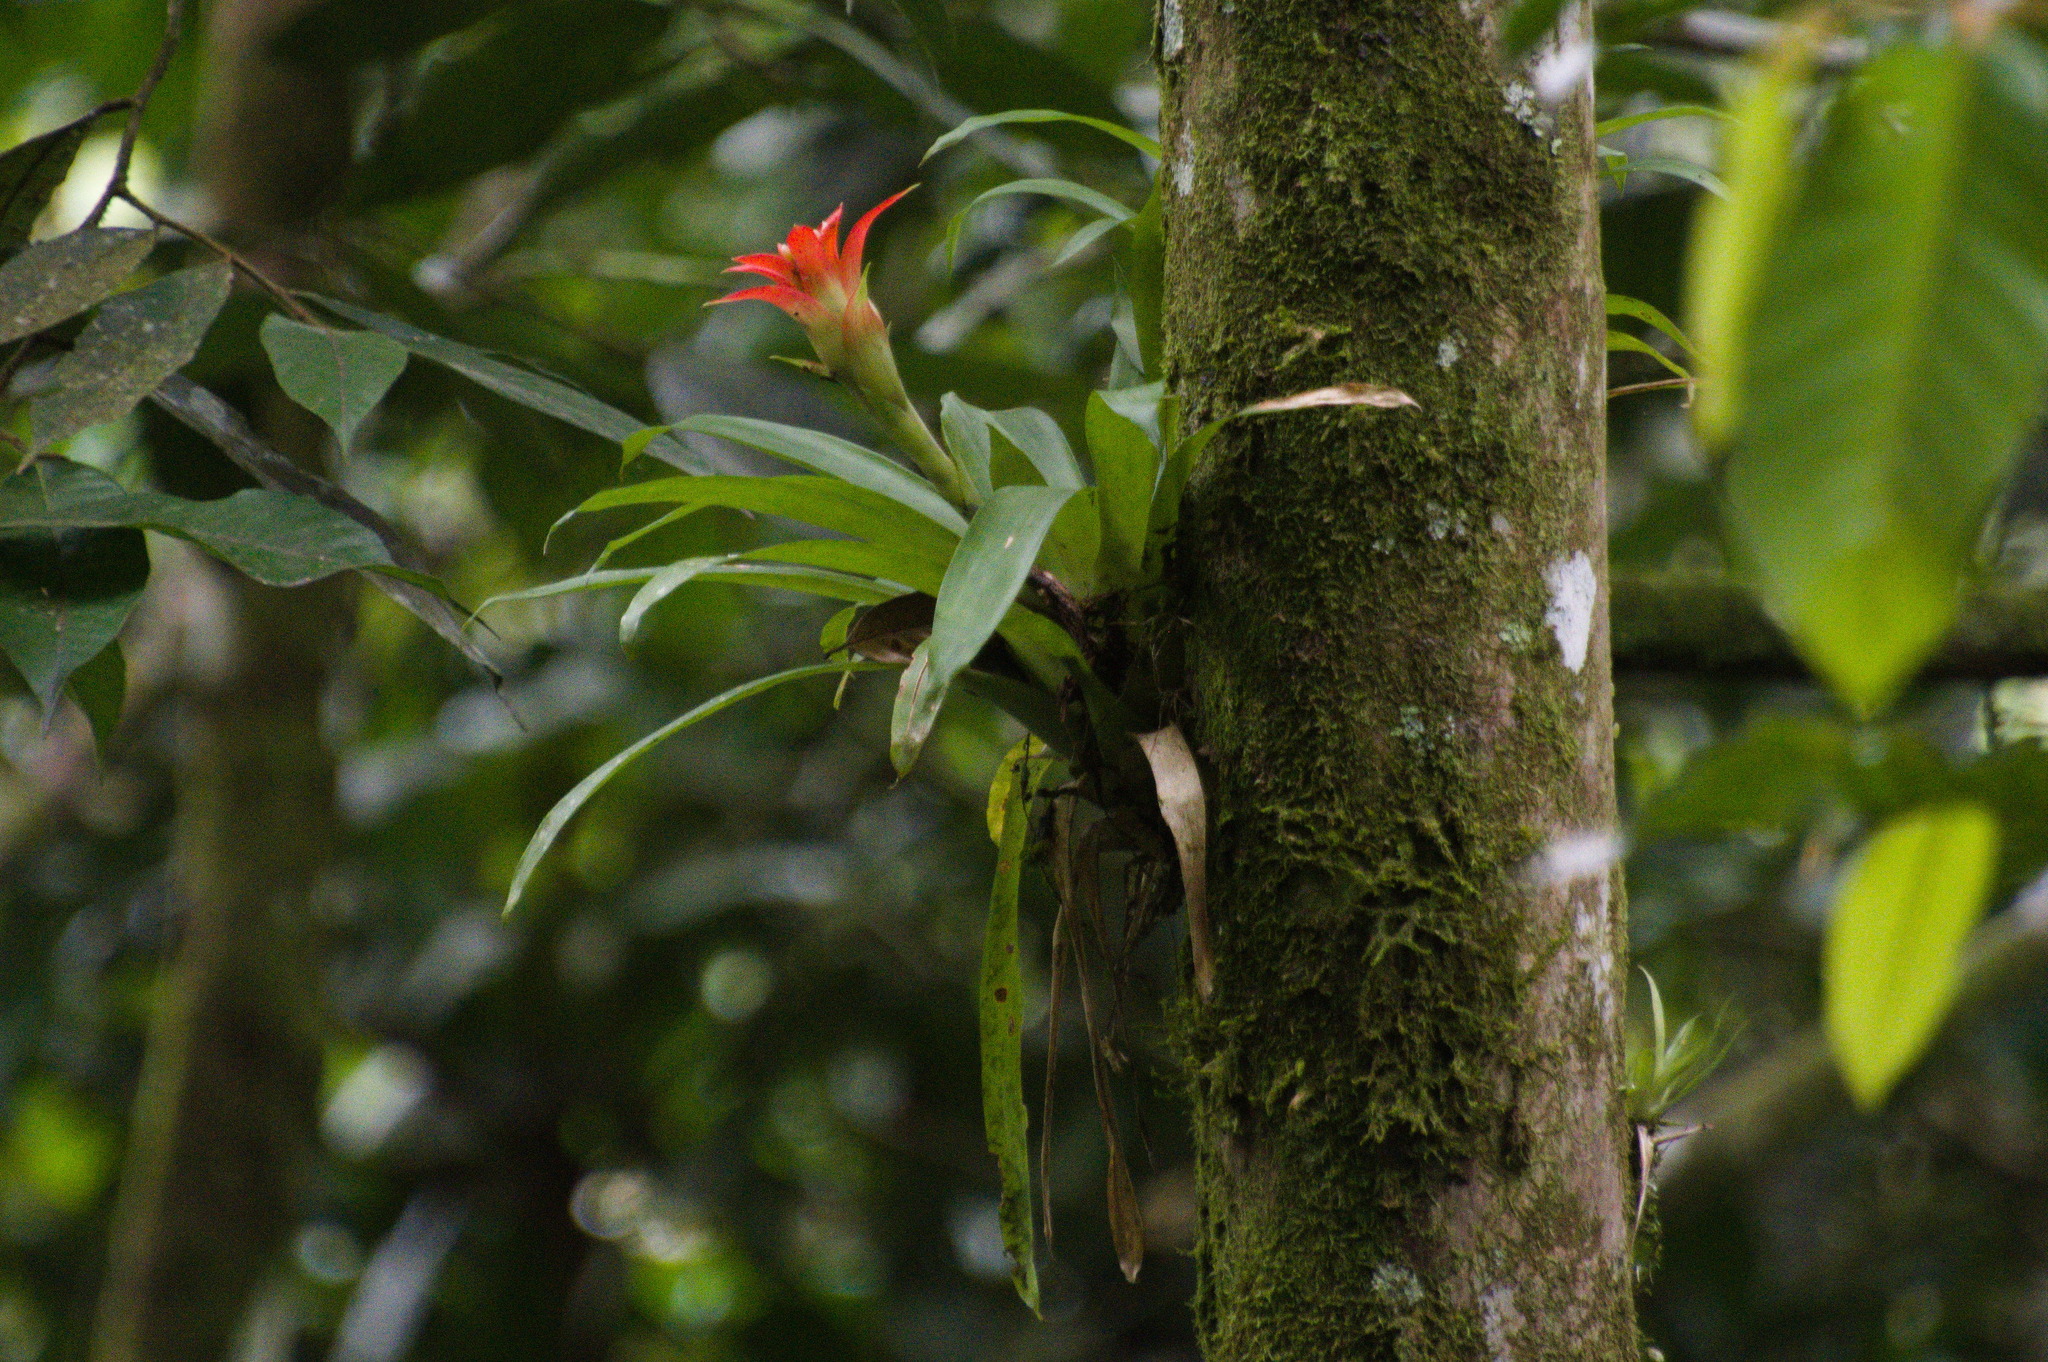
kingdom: Plantae
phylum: Tracheophyta
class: Liliopsida
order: Poales
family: Bromeliaceae
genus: Guzmania
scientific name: Guzmania lingulata
